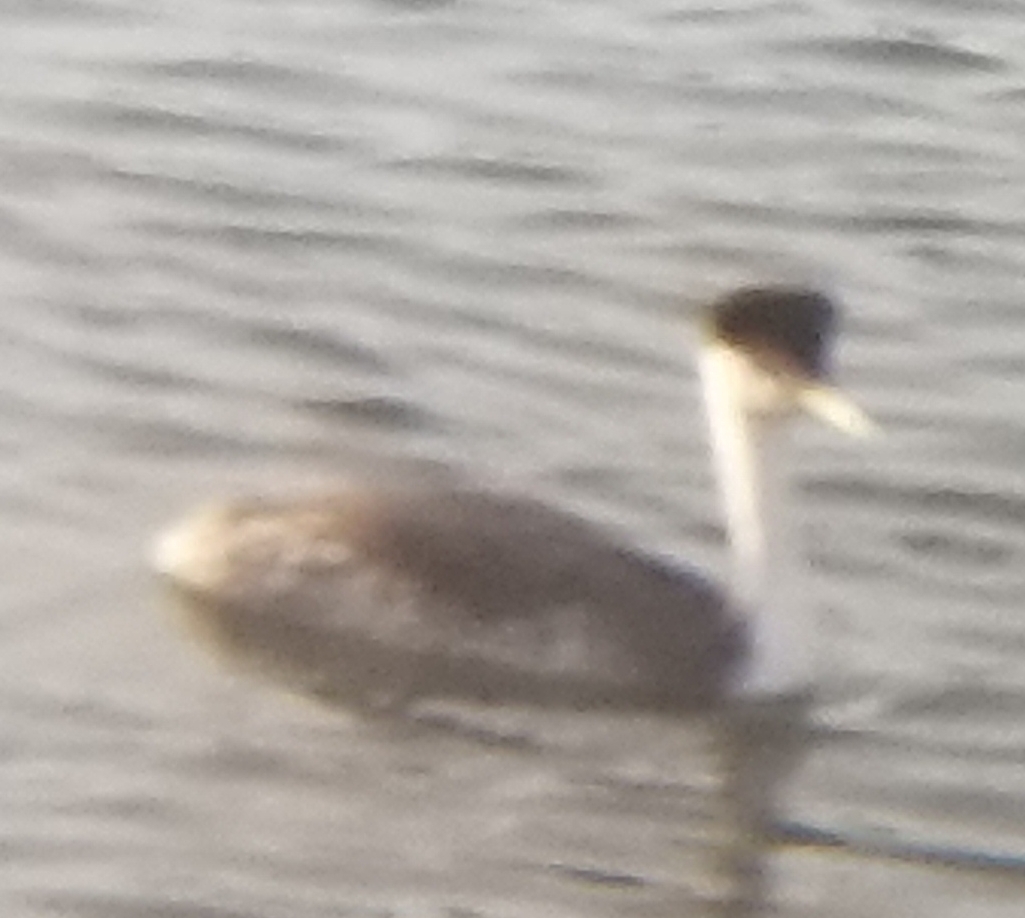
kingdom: Animalia
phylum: Chordata
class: Aves
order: Podicipediformes
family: Podicipedidae
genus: Aechmophorus
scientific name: Aechmophorus occidentalis
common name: Western grebe
